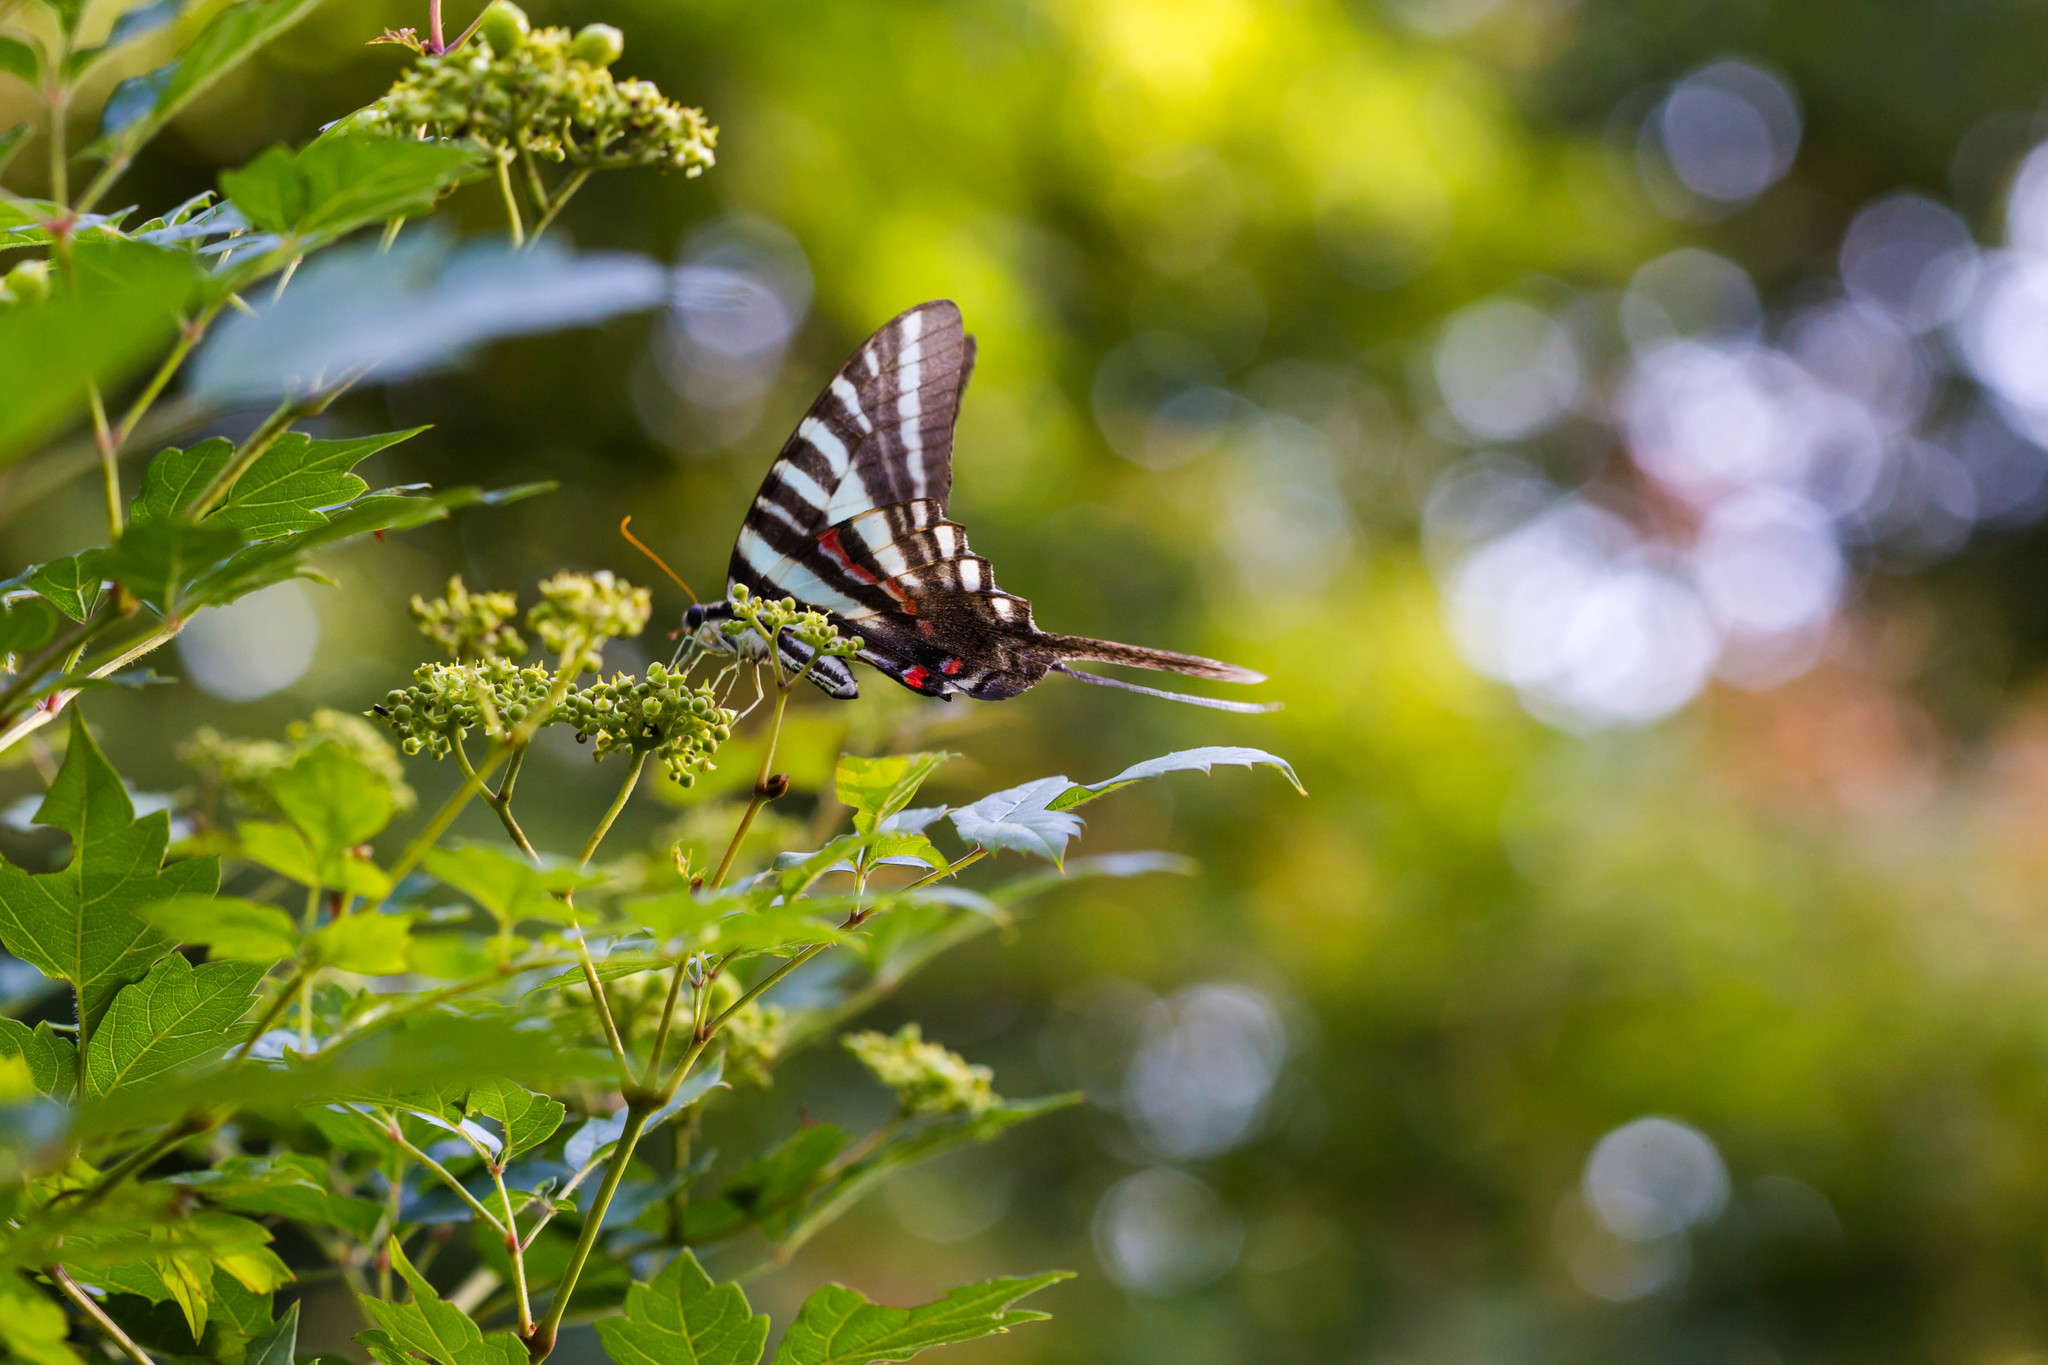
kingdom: Animalia
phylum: Arthropoda
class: Insecta
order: Lepidoptera
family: Papilionidae
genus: Protographium
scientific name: Protographium marcellus
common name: Zebra swallowtail
